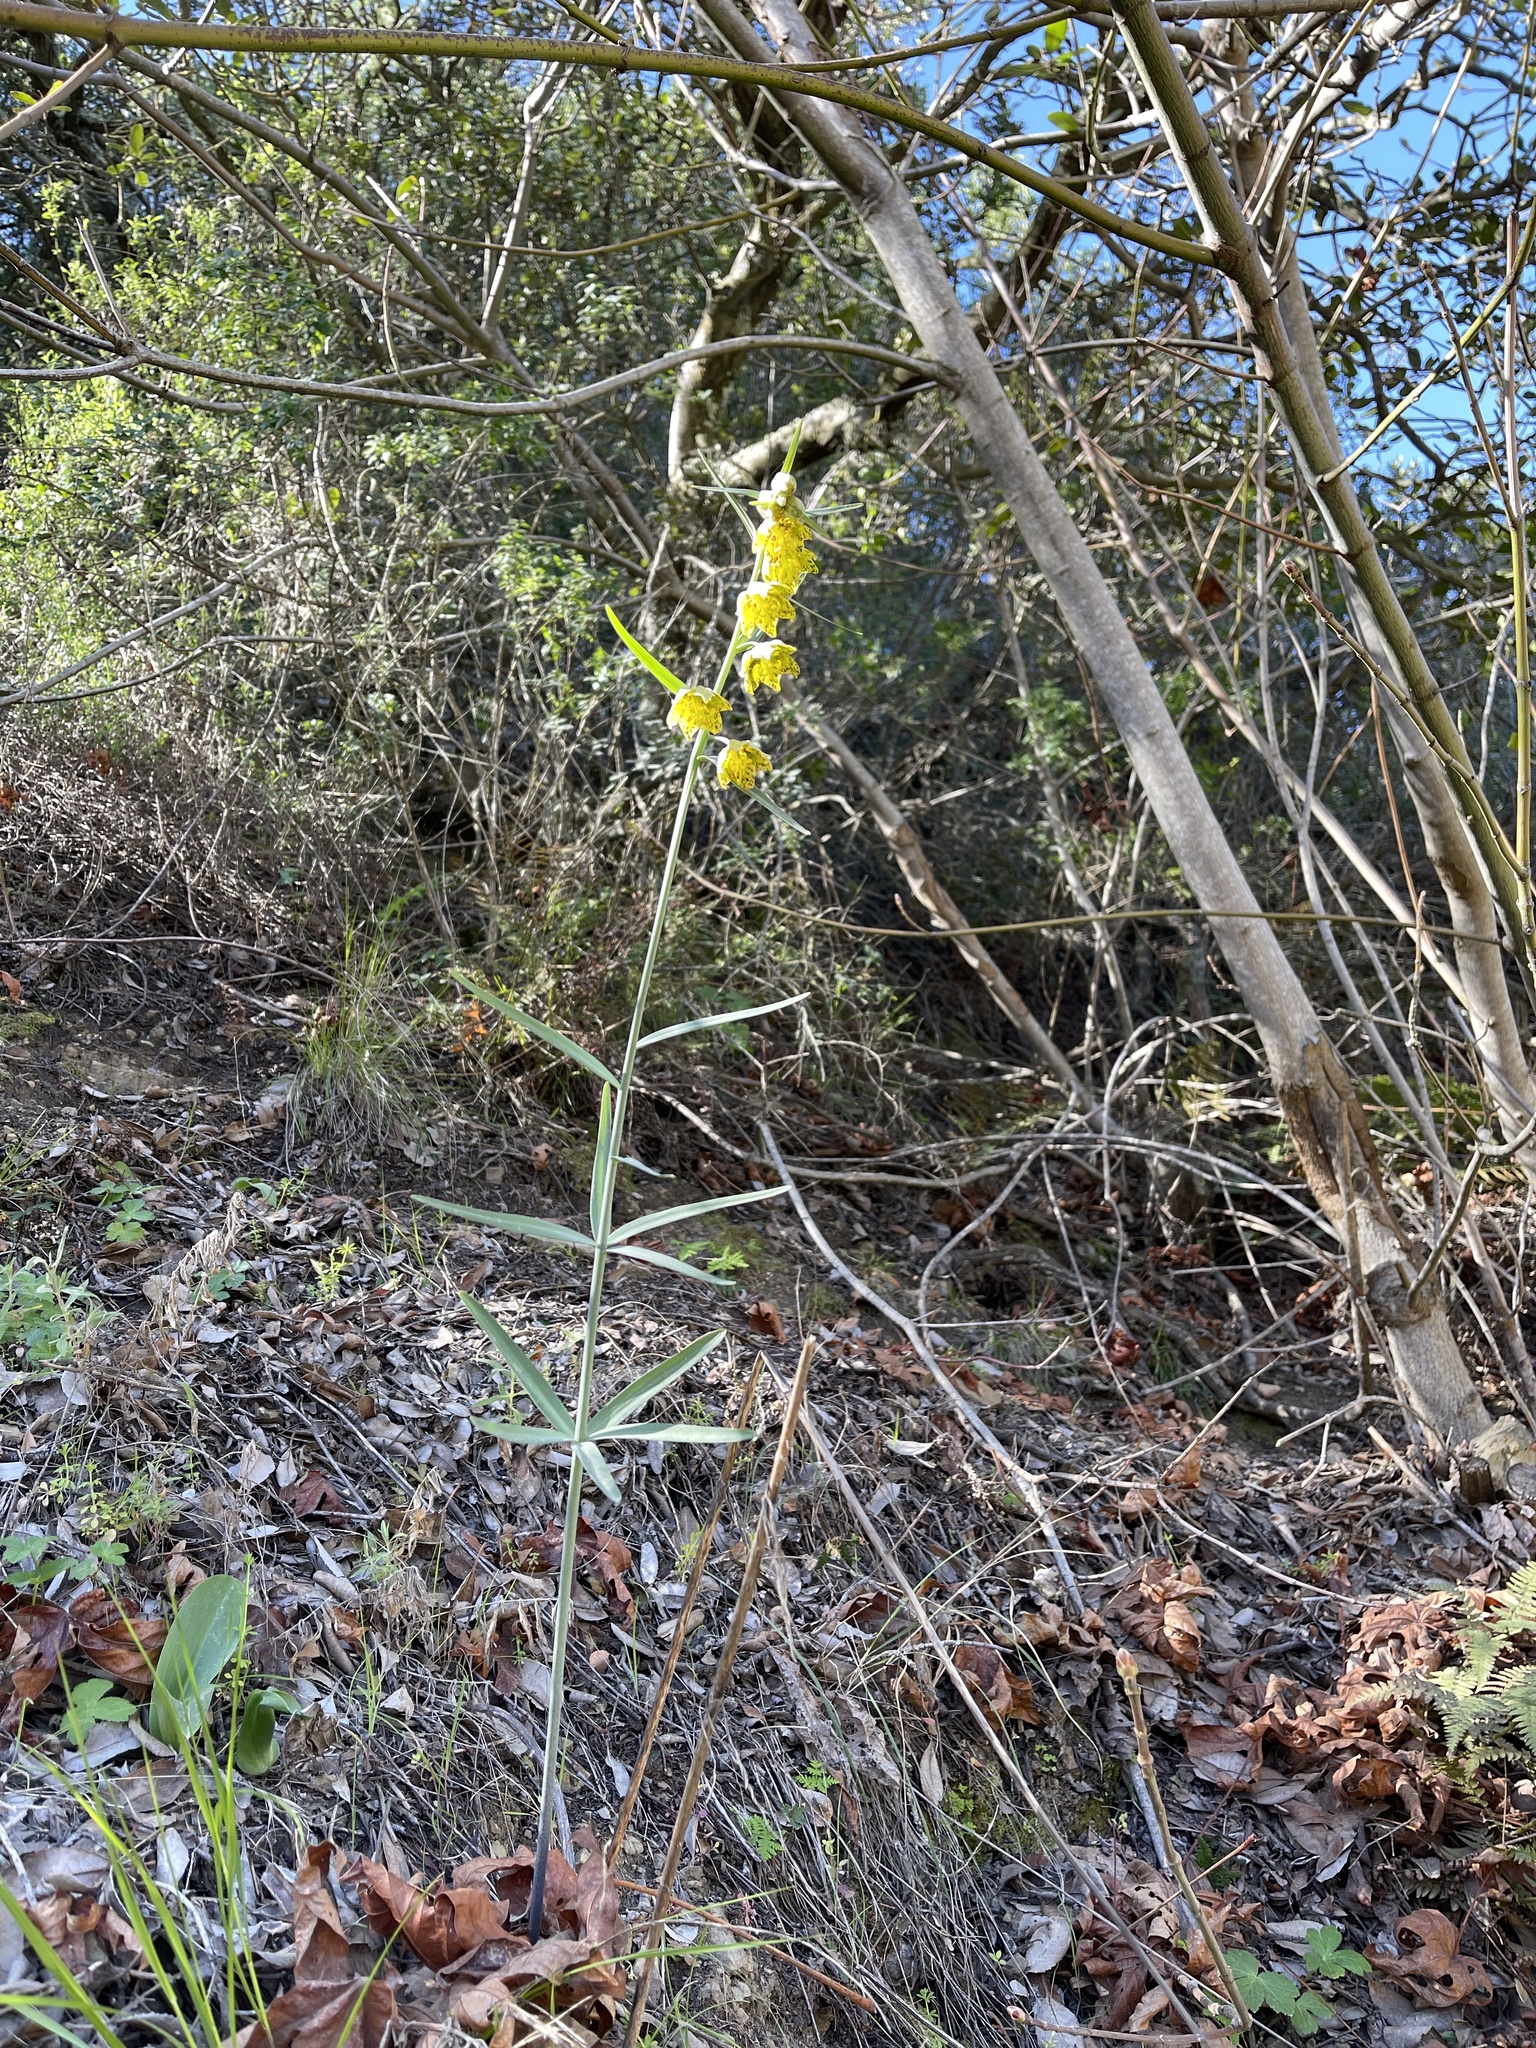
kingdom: Plantae
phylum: Tracheophyta
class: Liliopsida
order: Liliales
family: Liliaceae
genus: Fritillaria
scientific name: Fritillaria ojaiensis
